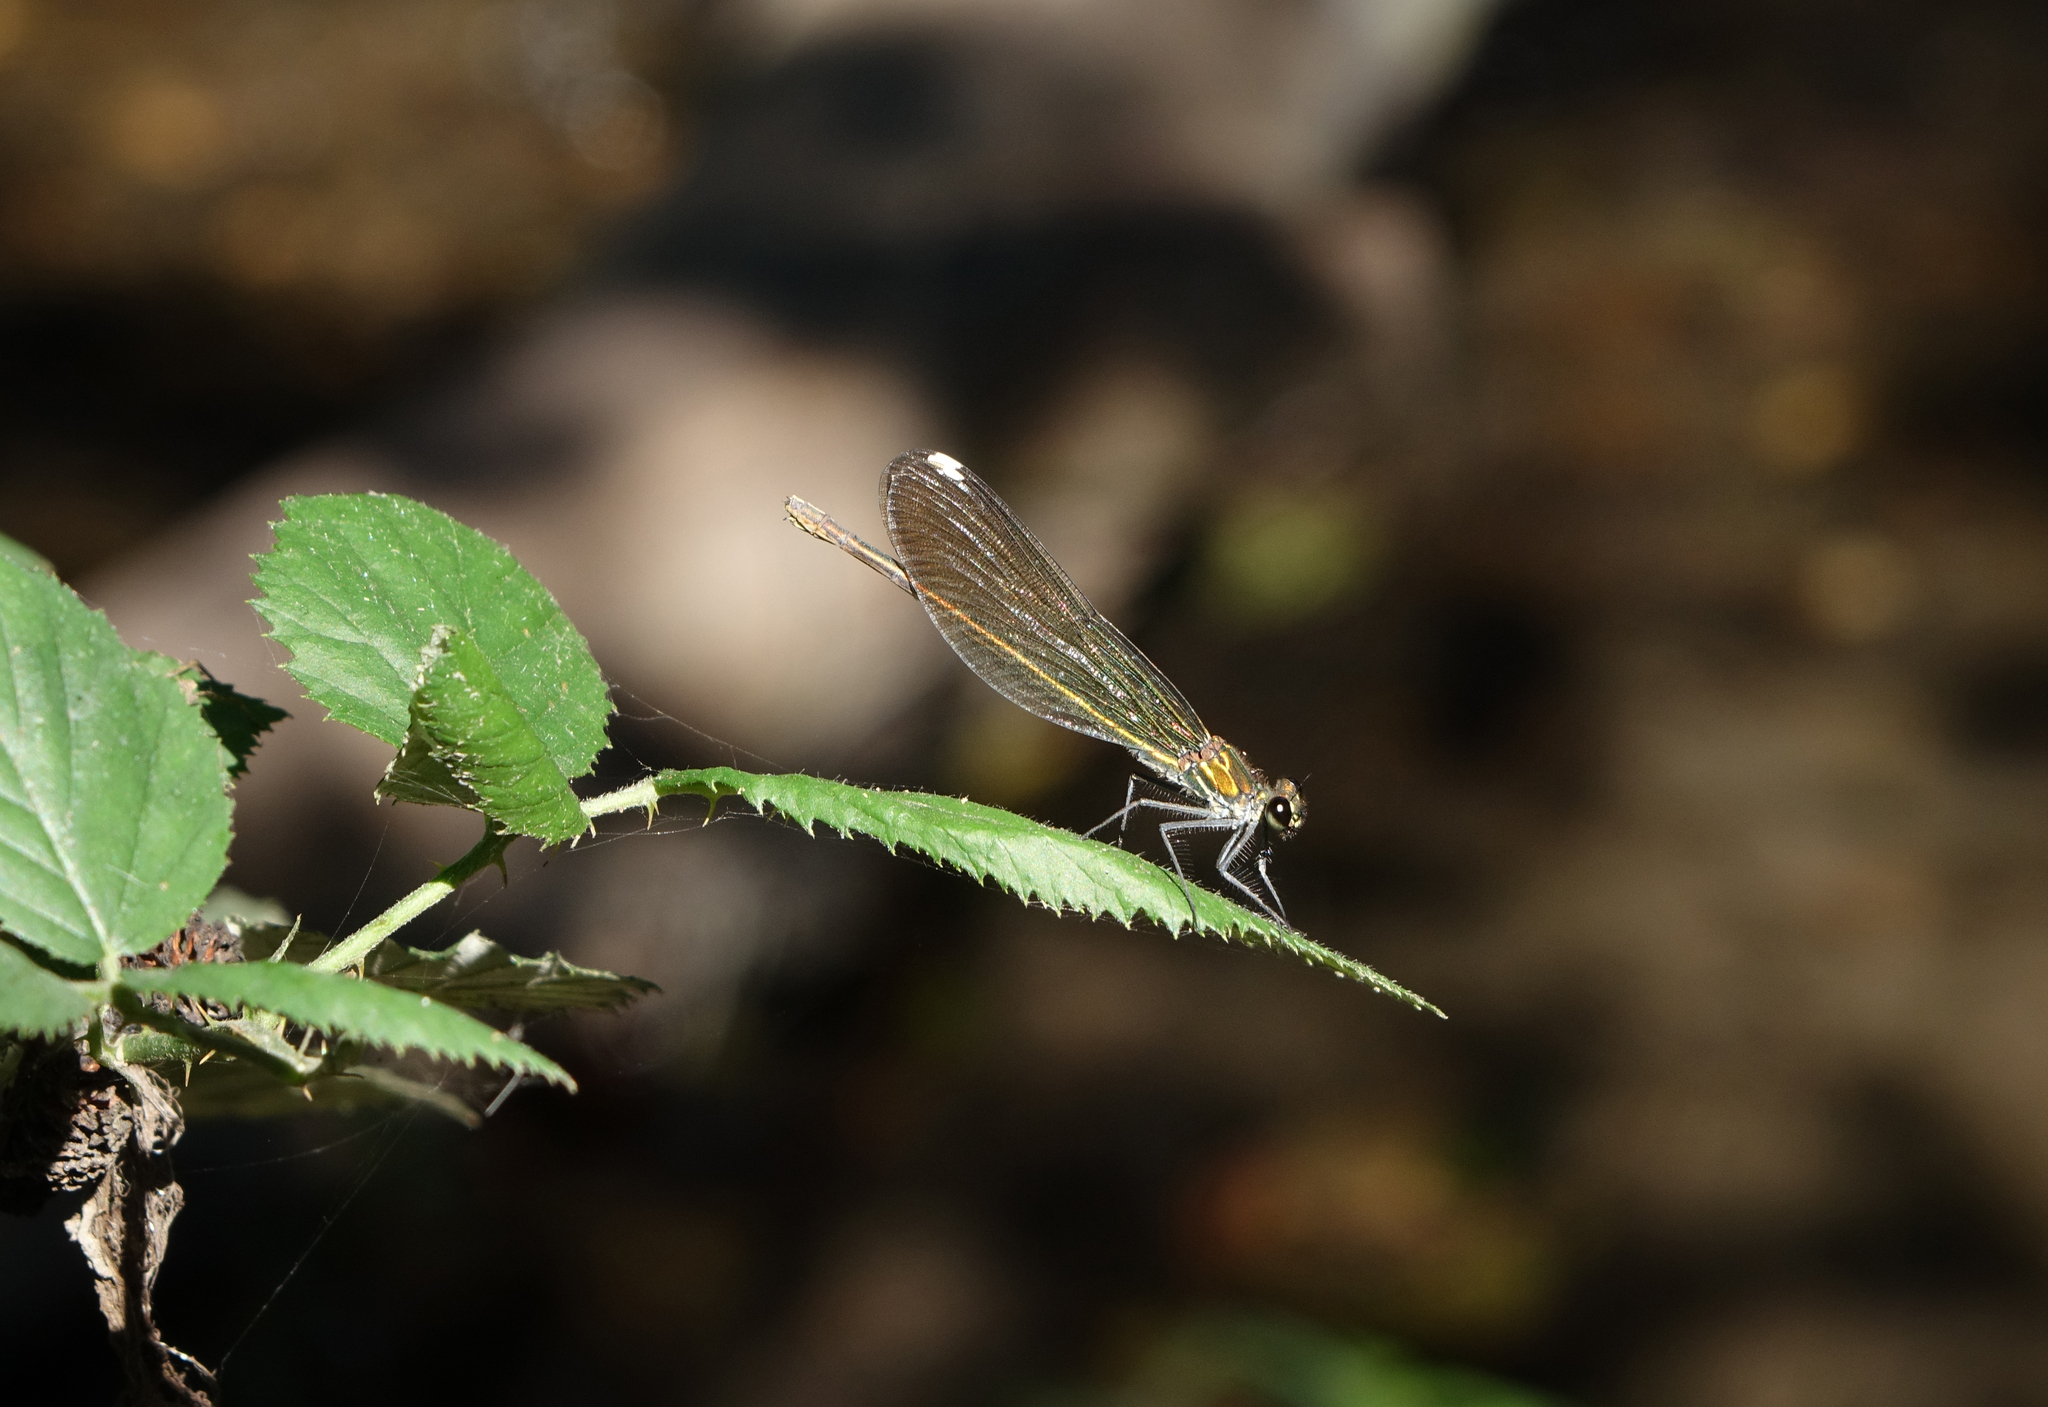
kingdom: Animalia
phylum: Arthropoda
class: Insecta
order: Odonata
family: Calopterygidae
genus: Calopteryx
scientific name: Calopteryx splendens
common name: Banded demoiselle
